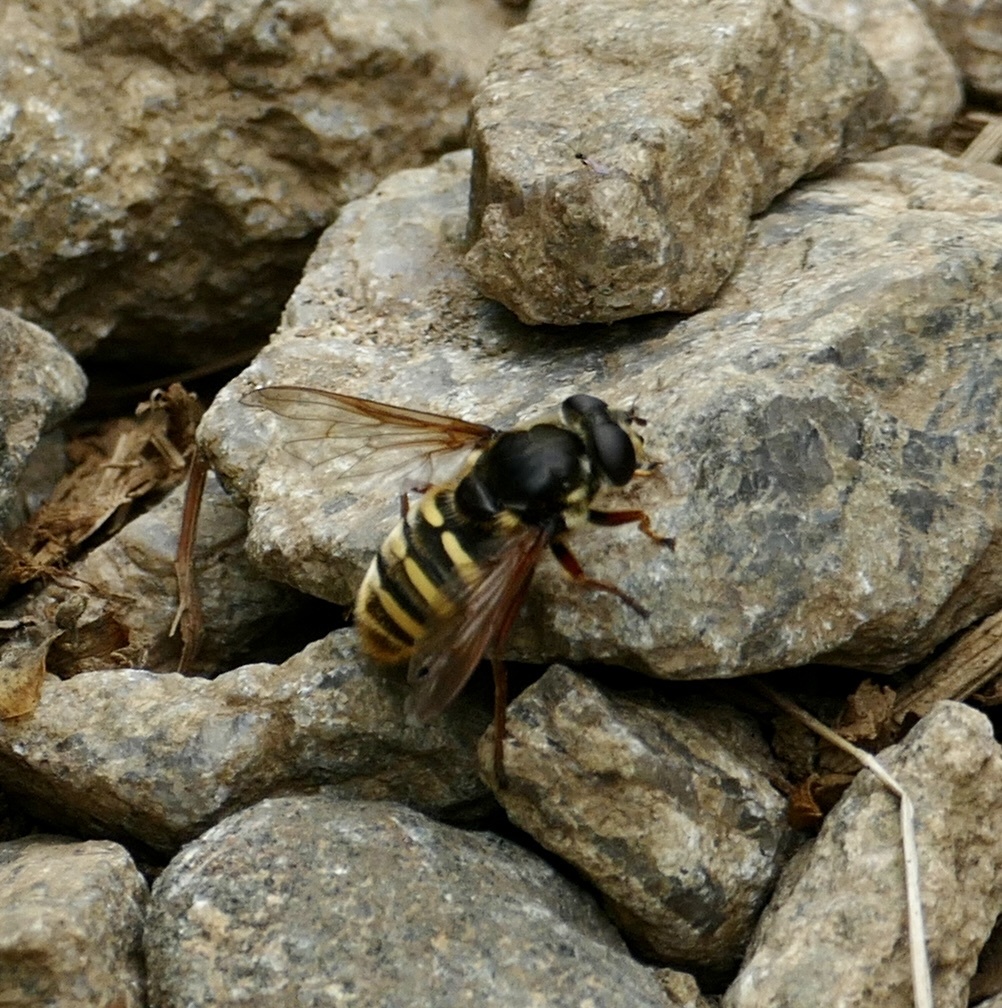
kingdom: Animalia
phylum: Arthropoda
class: Insecta
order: Diptera
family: Syrphidae
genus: Sericomyia
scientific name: Sericomyia silentis
